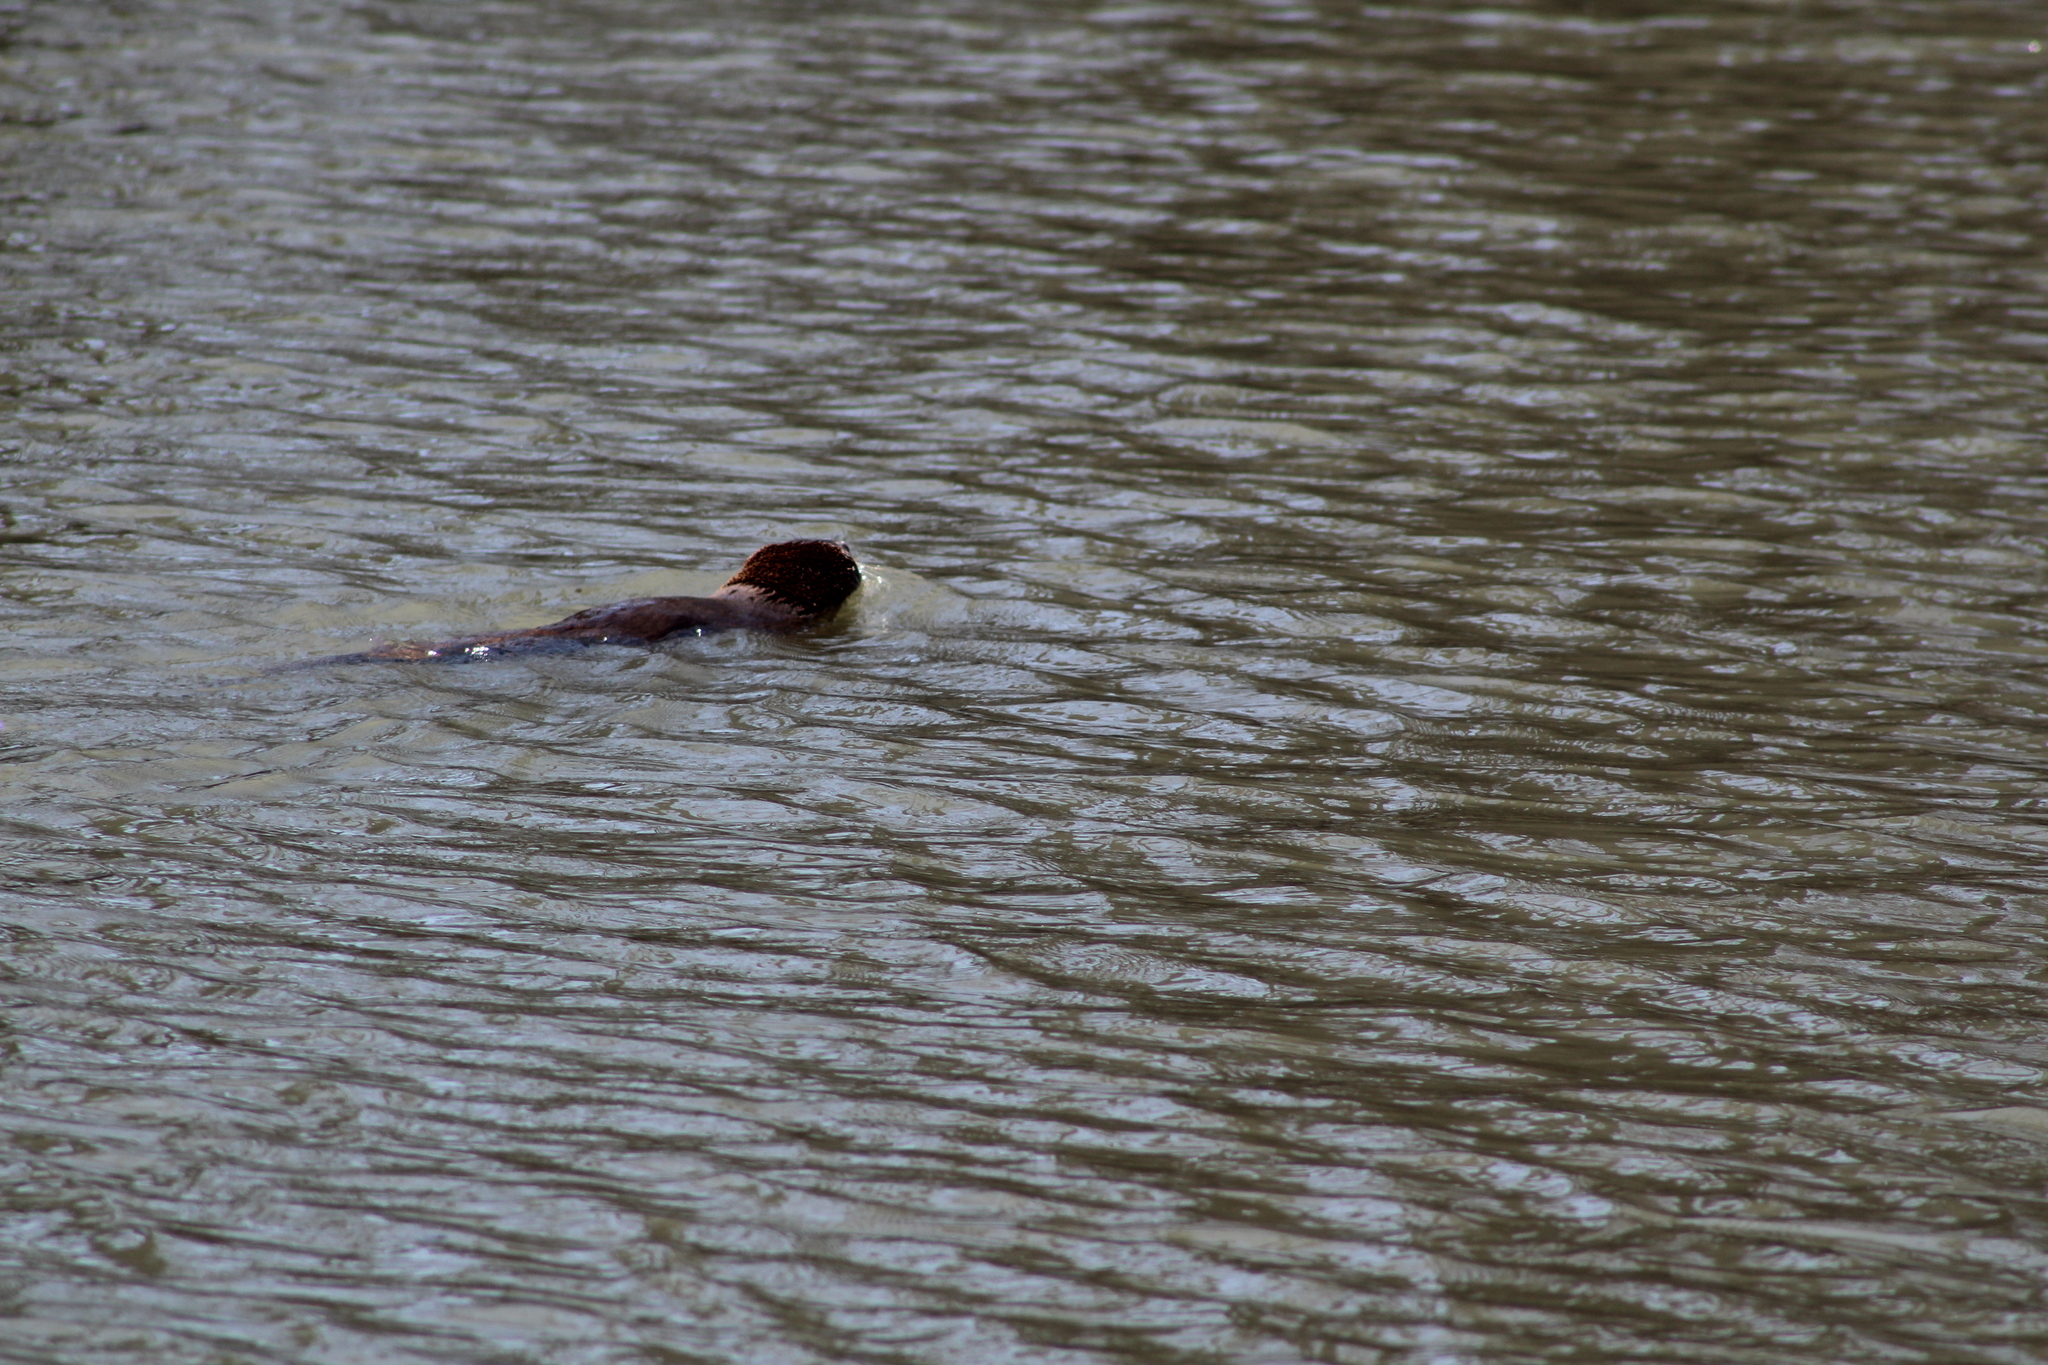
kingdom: Animalia
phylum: Chordata
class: Mammalia
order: Carnivora
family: Mustelidae
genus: Lontra
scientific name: Lontra canadensis
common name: North american river otter
